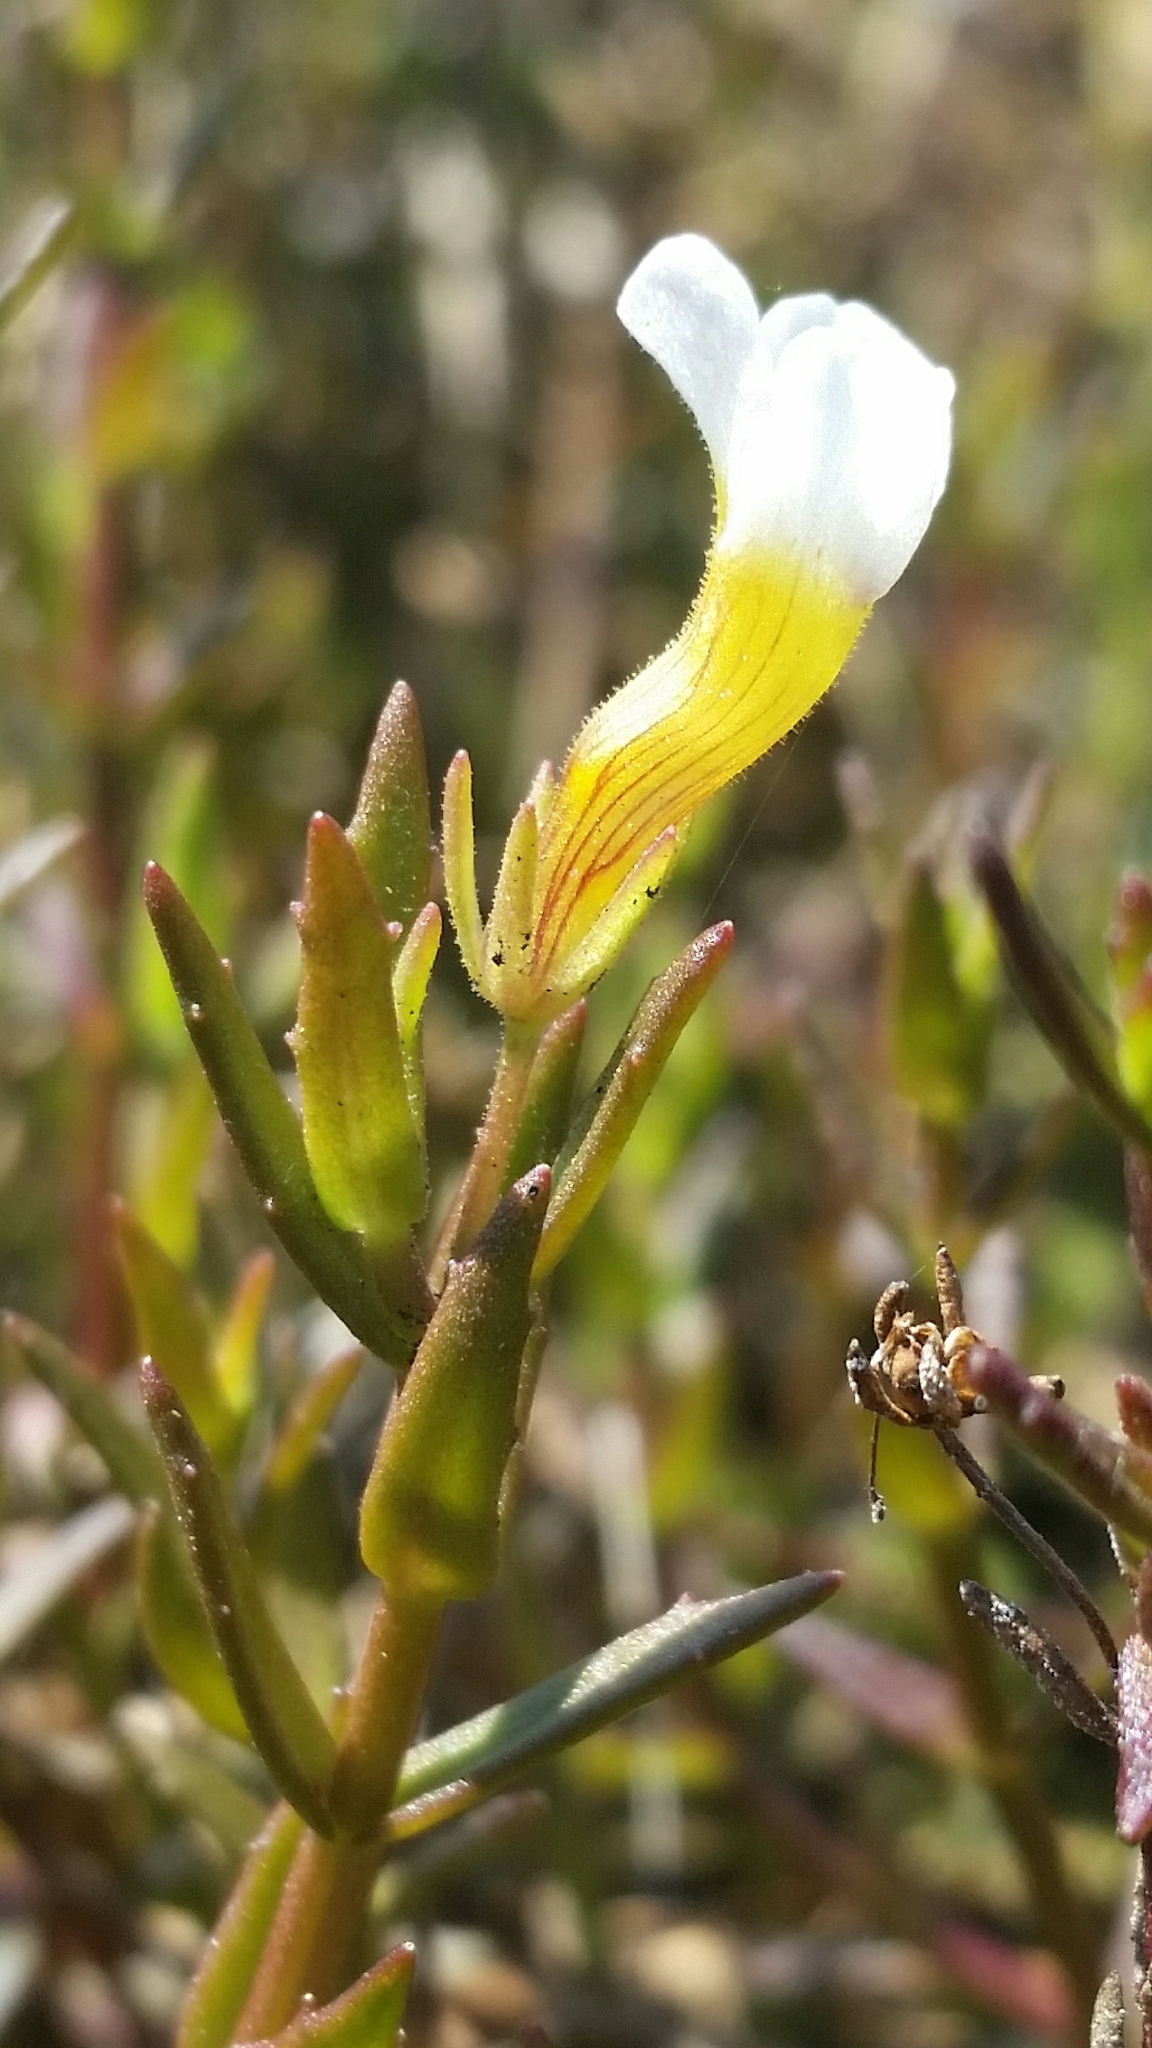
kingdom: Plantae
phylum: Tracheophyta
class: Magnoliopsida
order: Lamiales
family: Plantaginaceae
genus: Gratiola
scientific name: Gratiola ramosa
